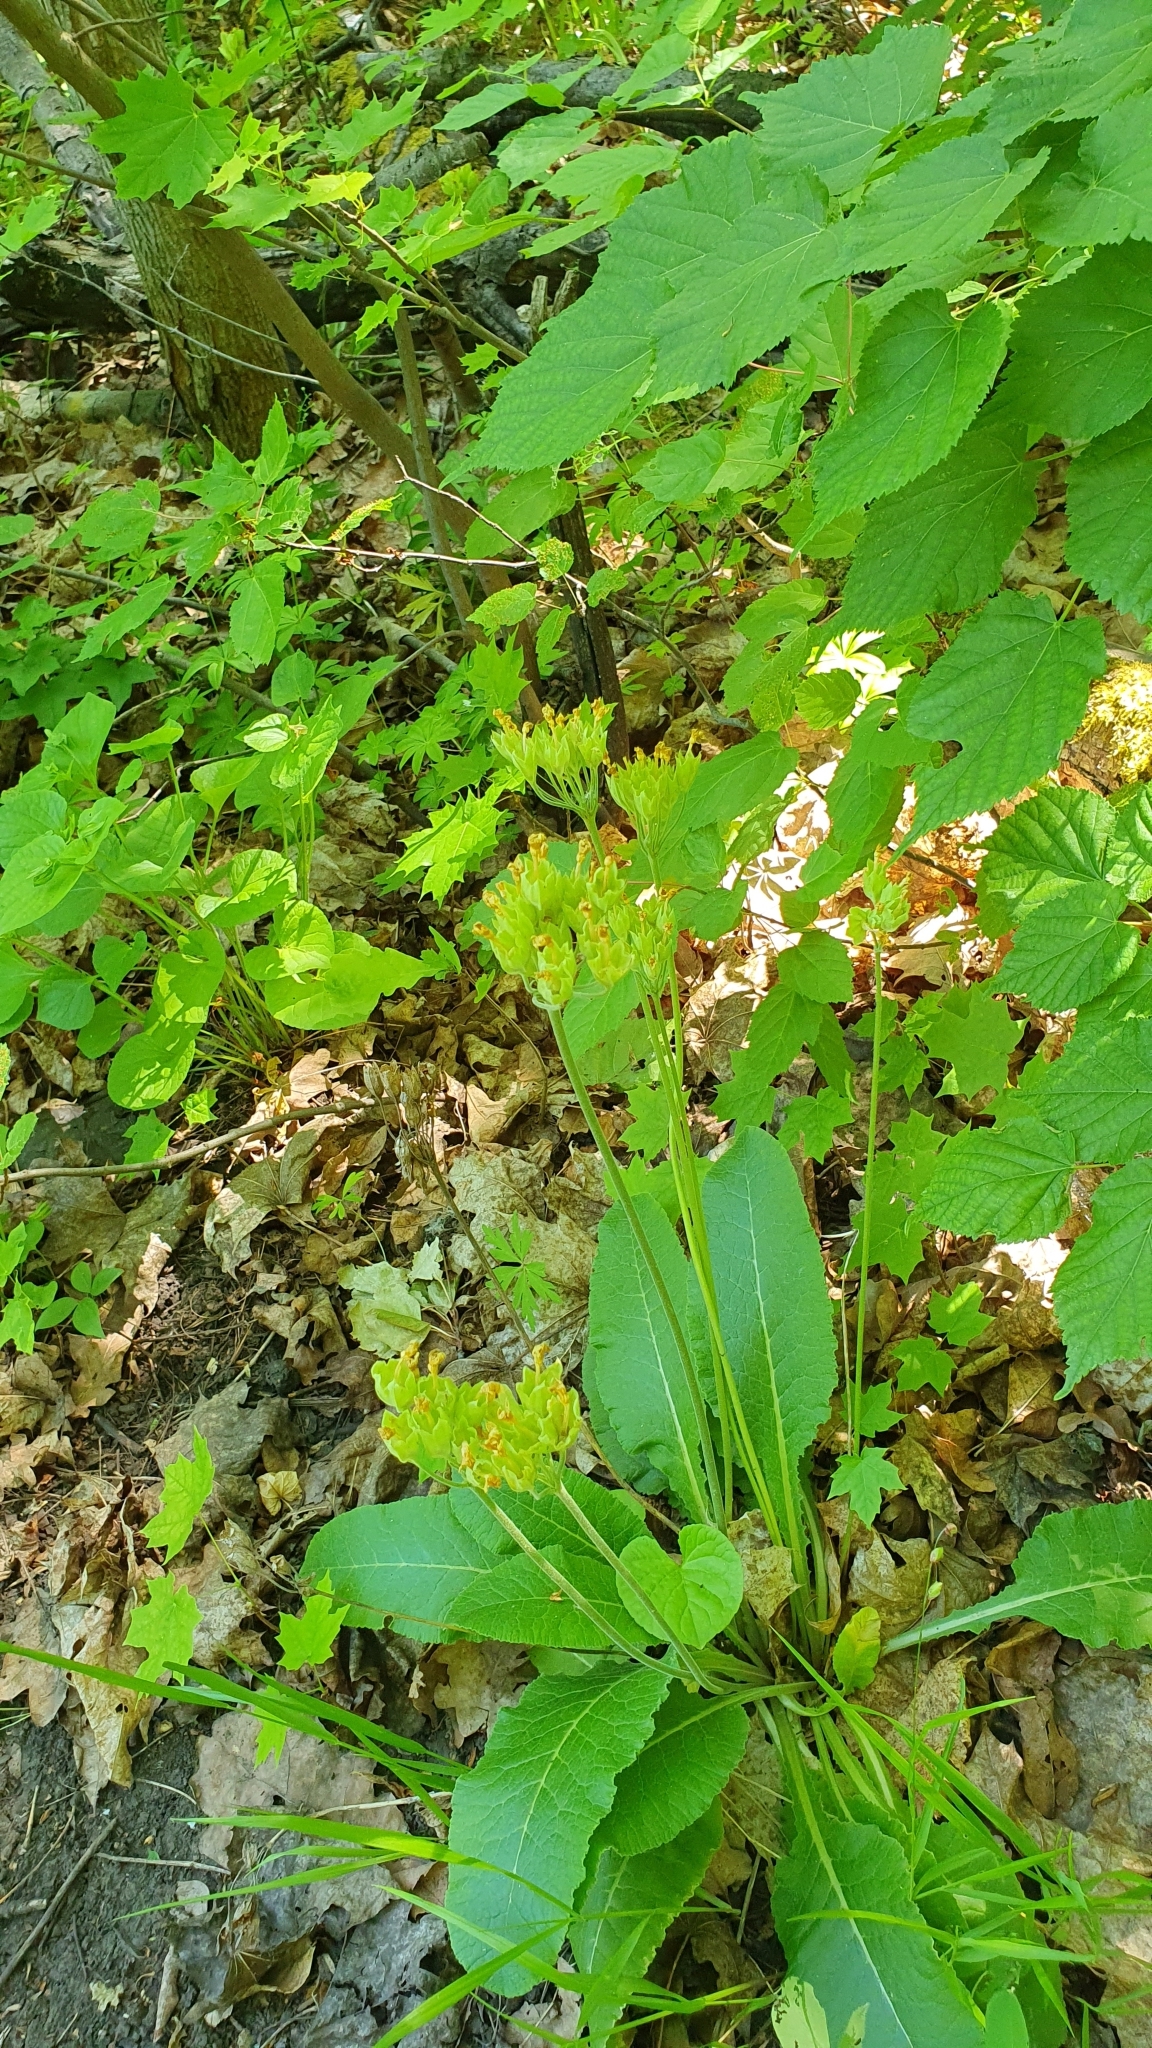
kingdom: Plantae
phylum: Tracheophyta
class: Magnoliopsida
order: Ericales
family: Primulaceae
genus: Primula
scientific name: Primula veris
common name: Cowslip
